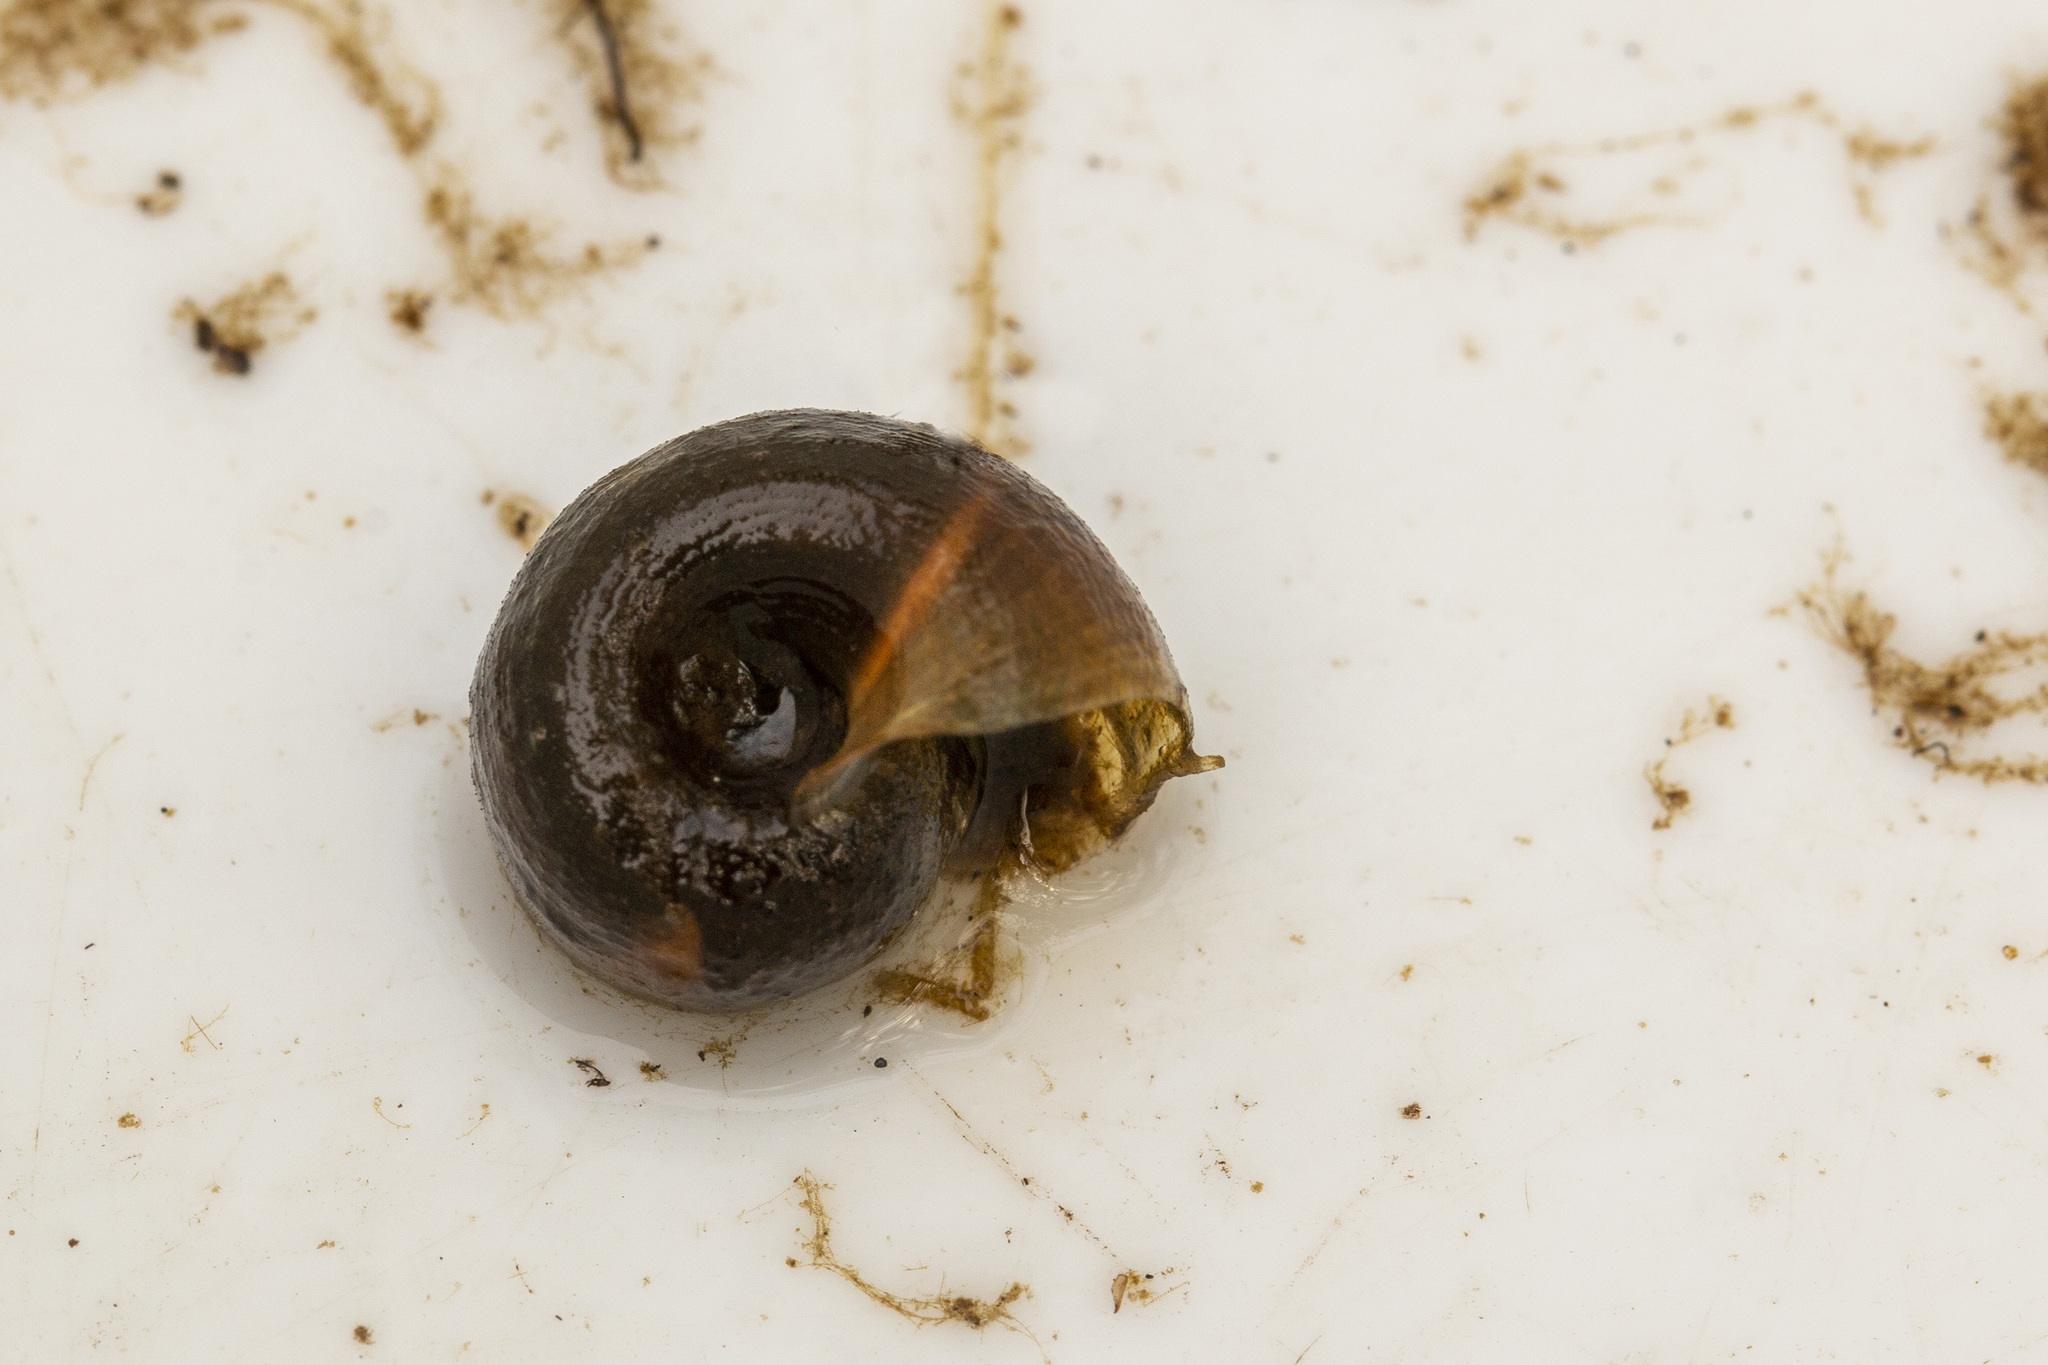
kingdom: Animalia
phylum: Mollusca
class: Gastropoda
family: Planorbidae
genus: Planorbarius
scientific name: Planorbarius corneus
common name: Great ramshorn
